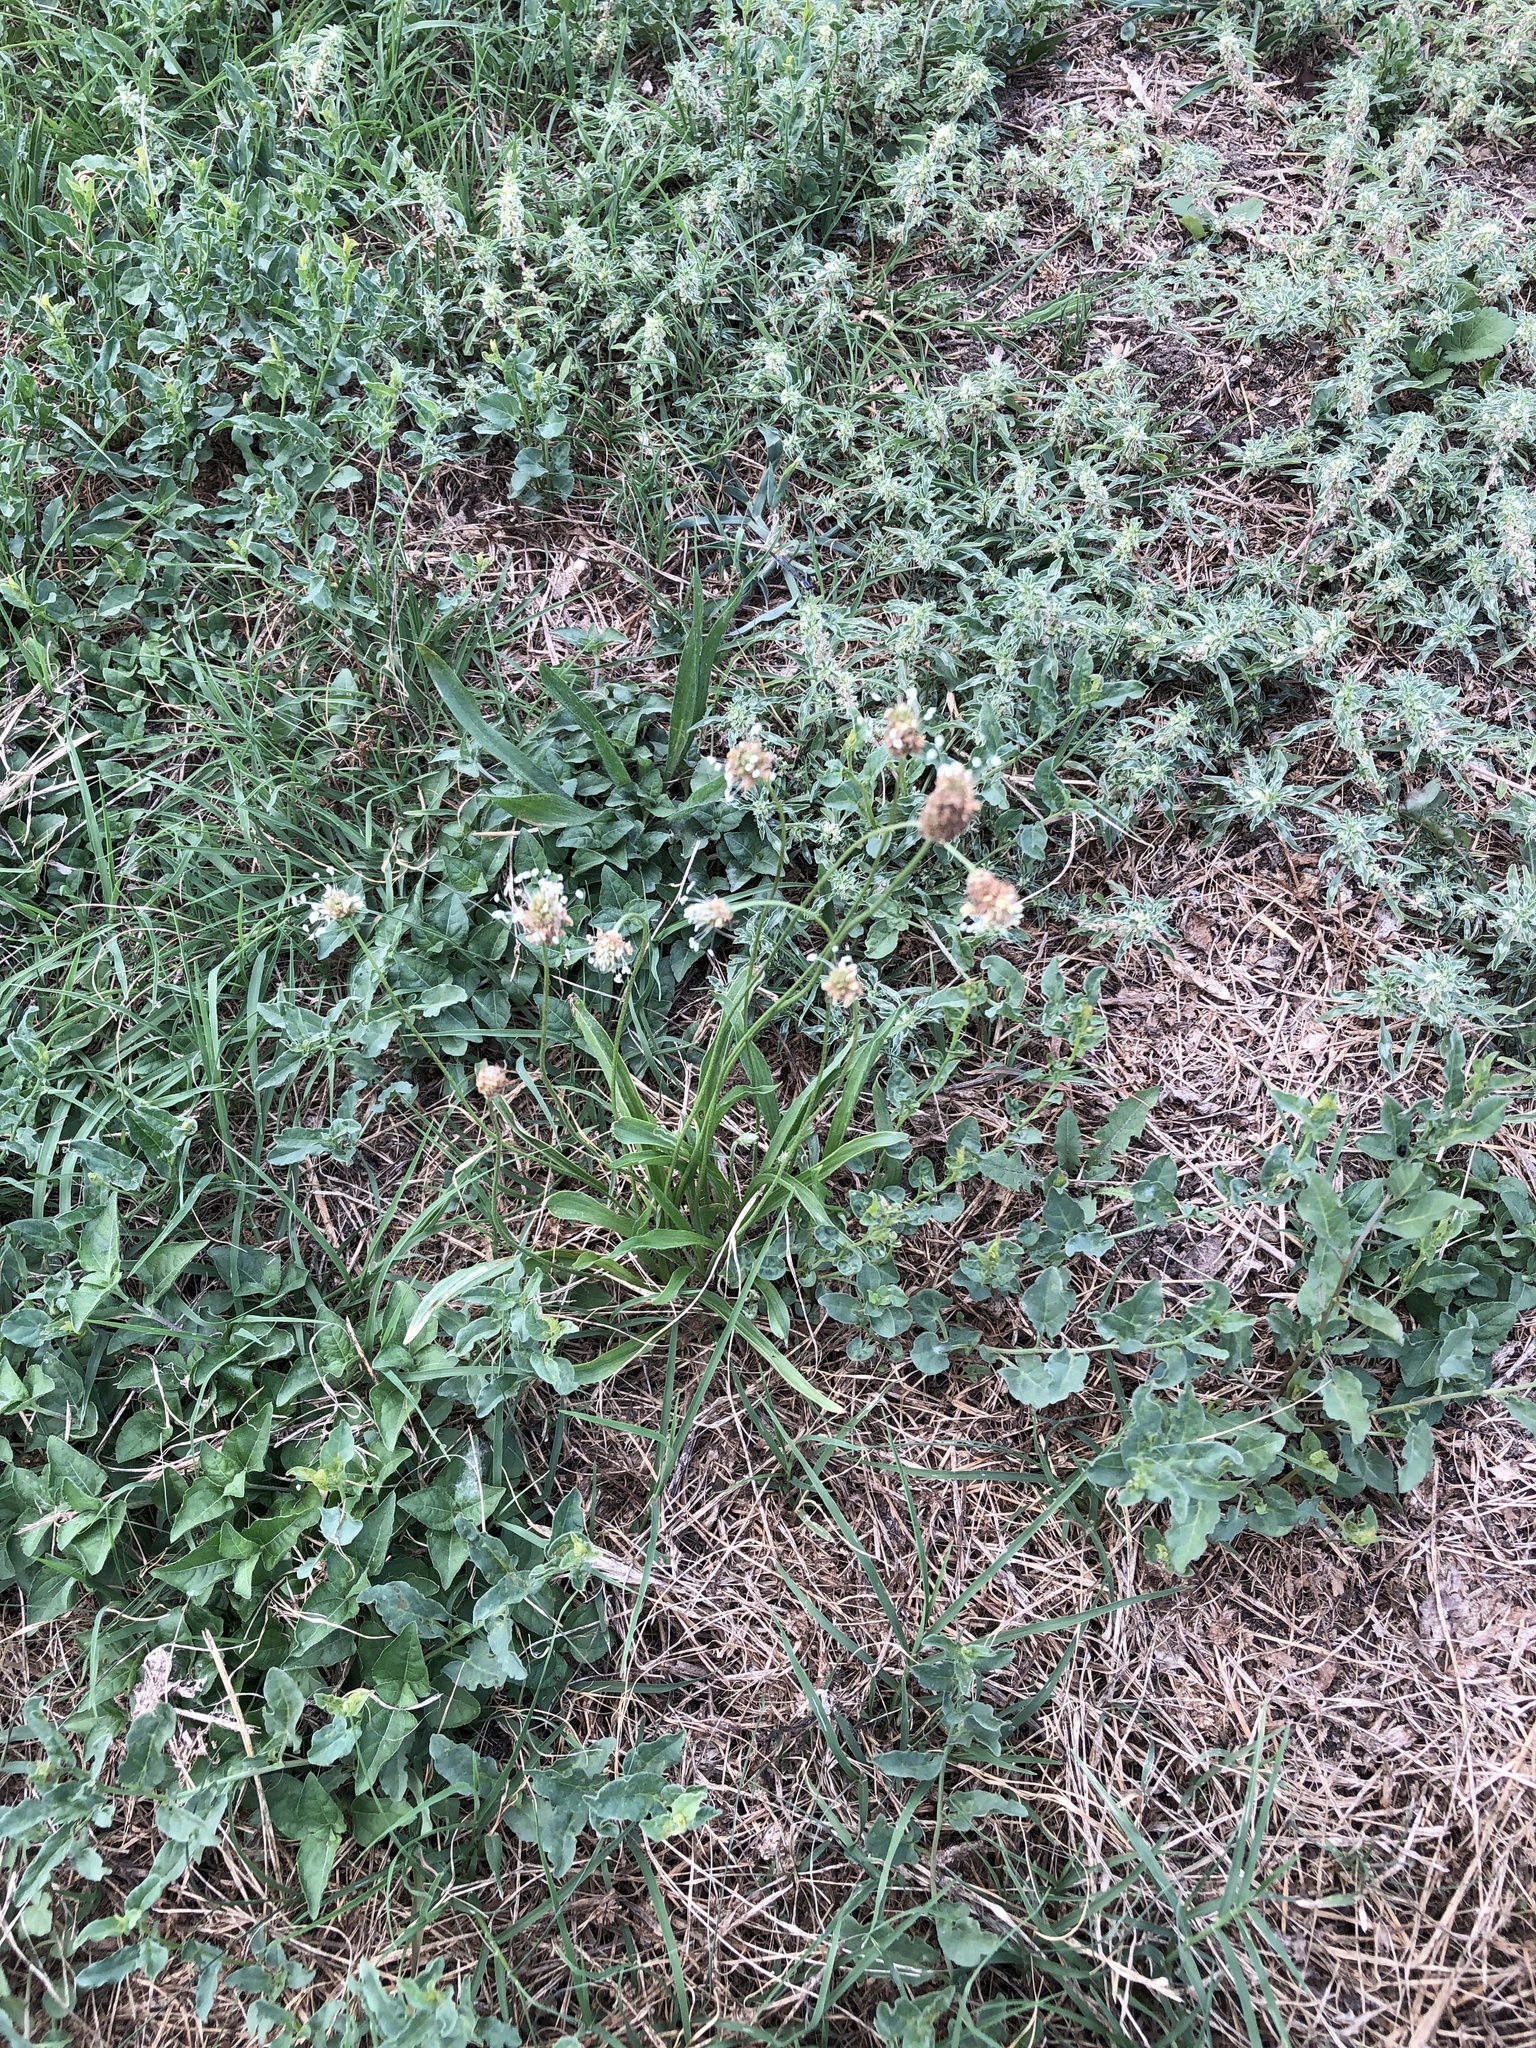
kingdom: Plantae
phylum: Tracheophyta
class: Magnoliopsida
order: Lamiales
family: Plantaginaceae
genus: Plantago
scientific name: Plantago lanceolata
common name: Ribwort plantain
